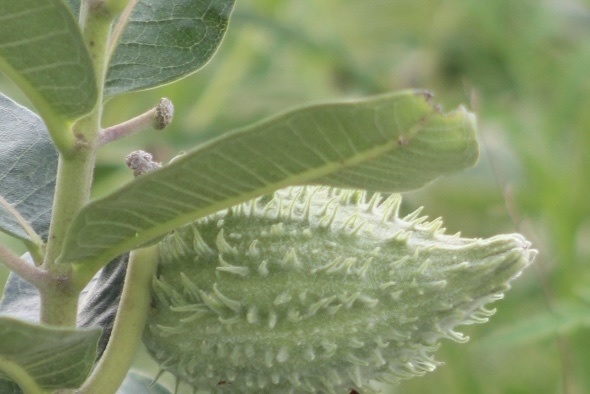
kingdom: Plantae
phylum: Tracheophyta
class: Magnoliopsida
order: Gentianales
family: Apocynaceae
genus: Asclepias
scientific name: Asclepias syriaca
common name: Common milkweed
